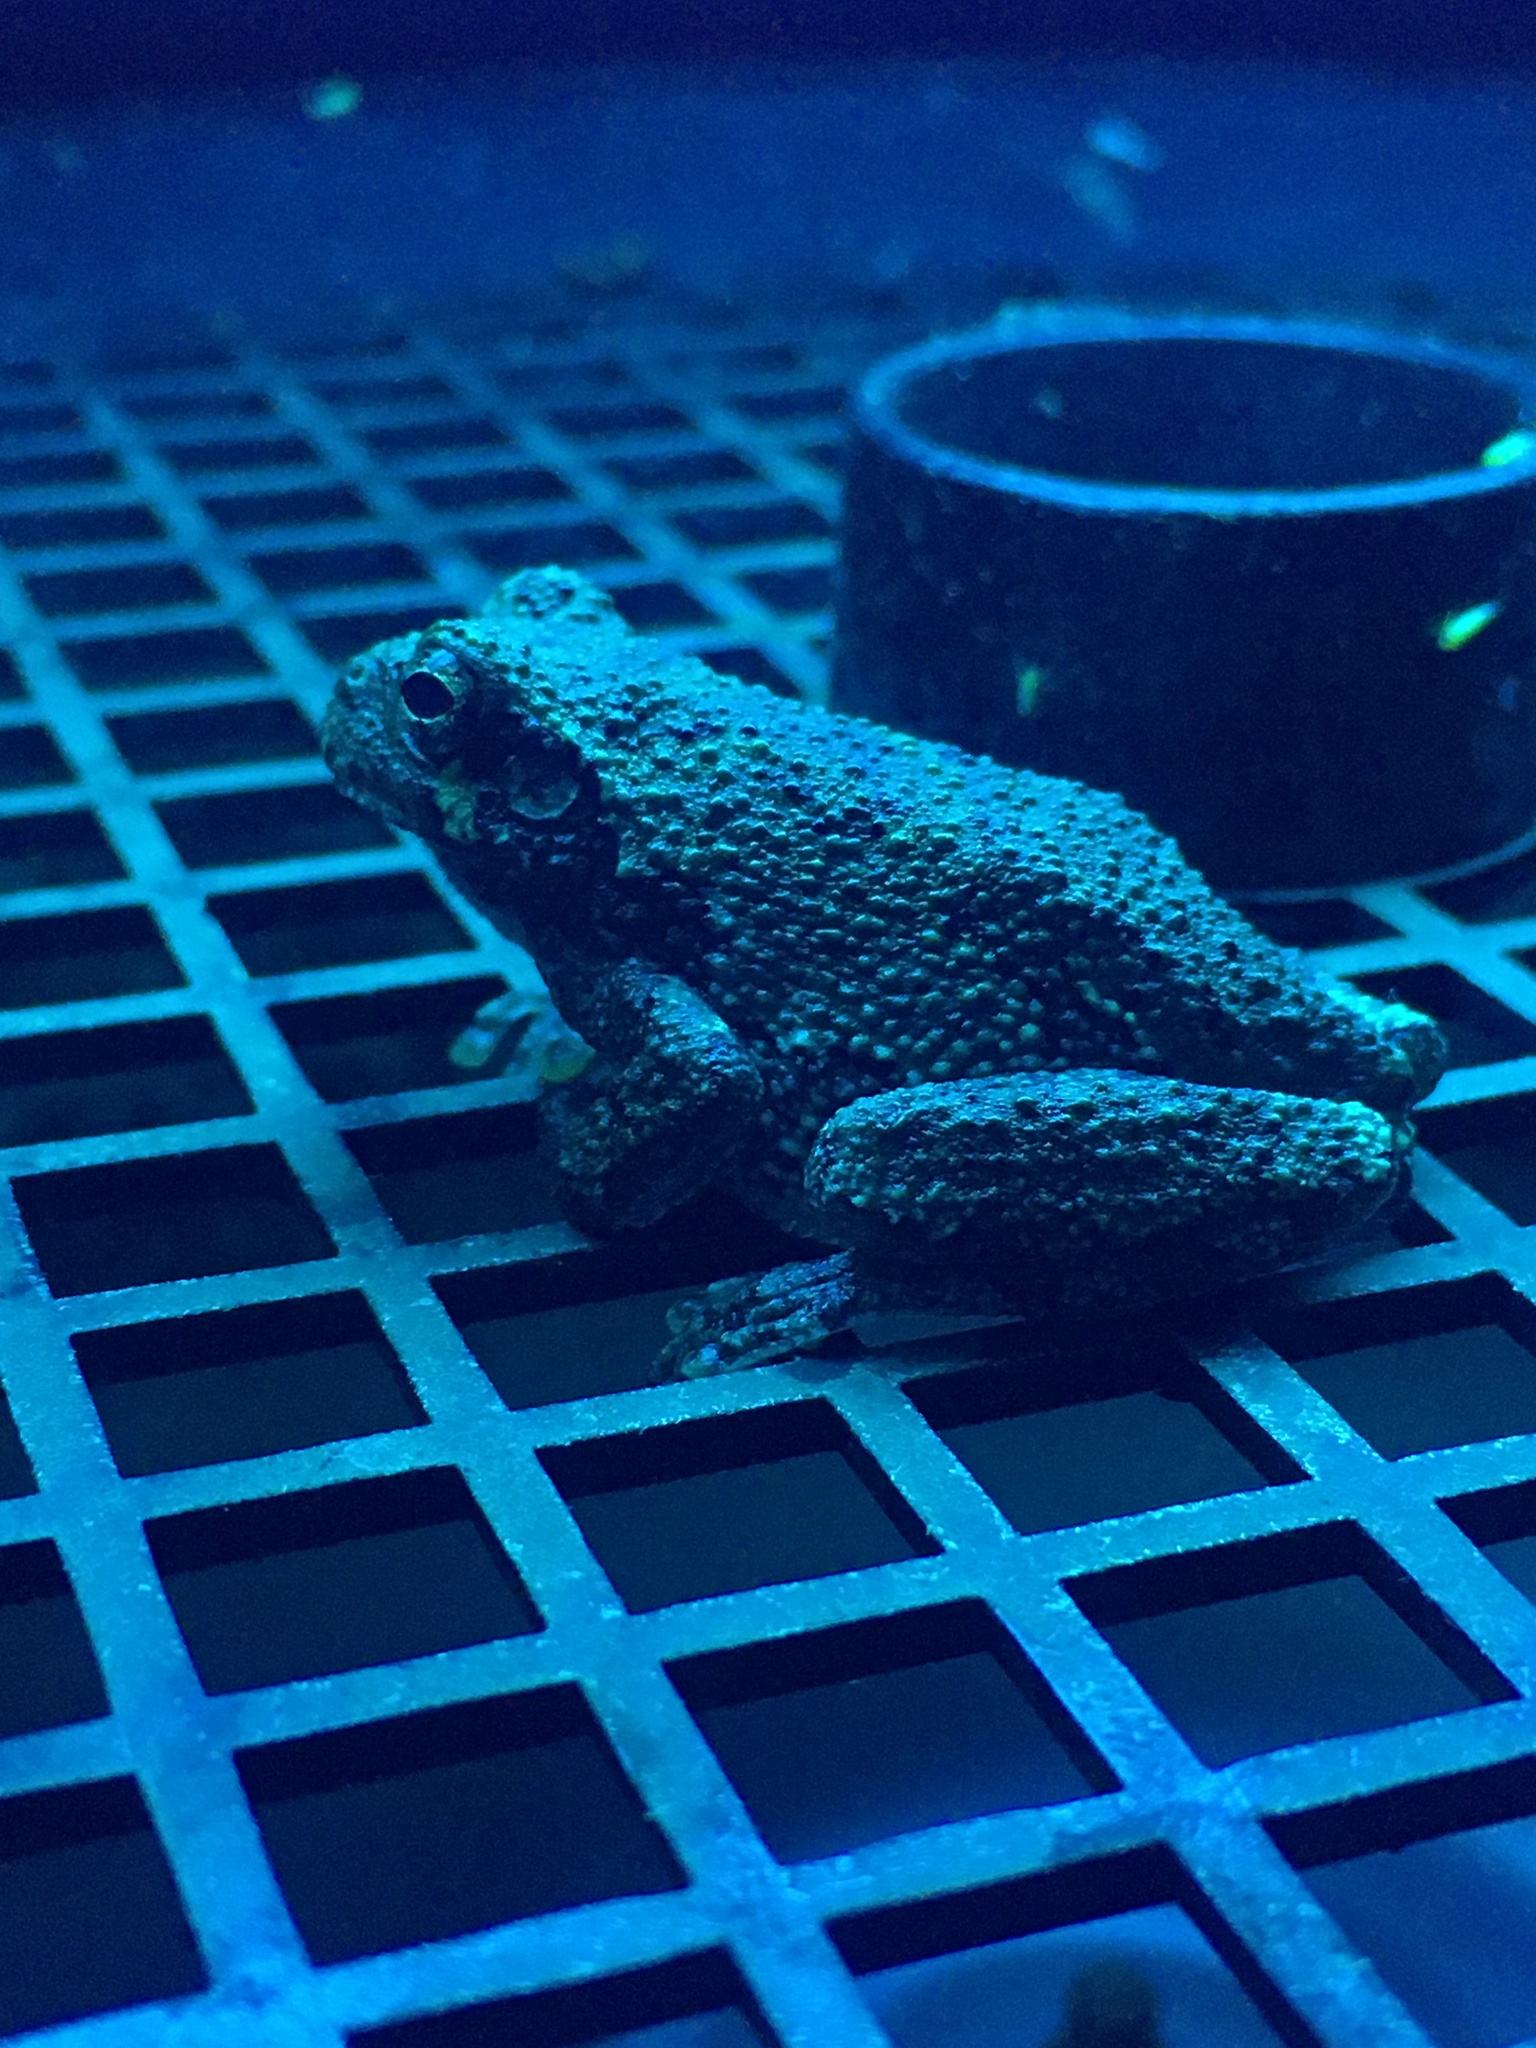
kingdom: Animalia
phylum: Chordata
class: Amphibia
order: Anura
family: Hylidae
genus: Dryophytes
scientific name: Dryophytes versicolor
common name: Gray treefrog
